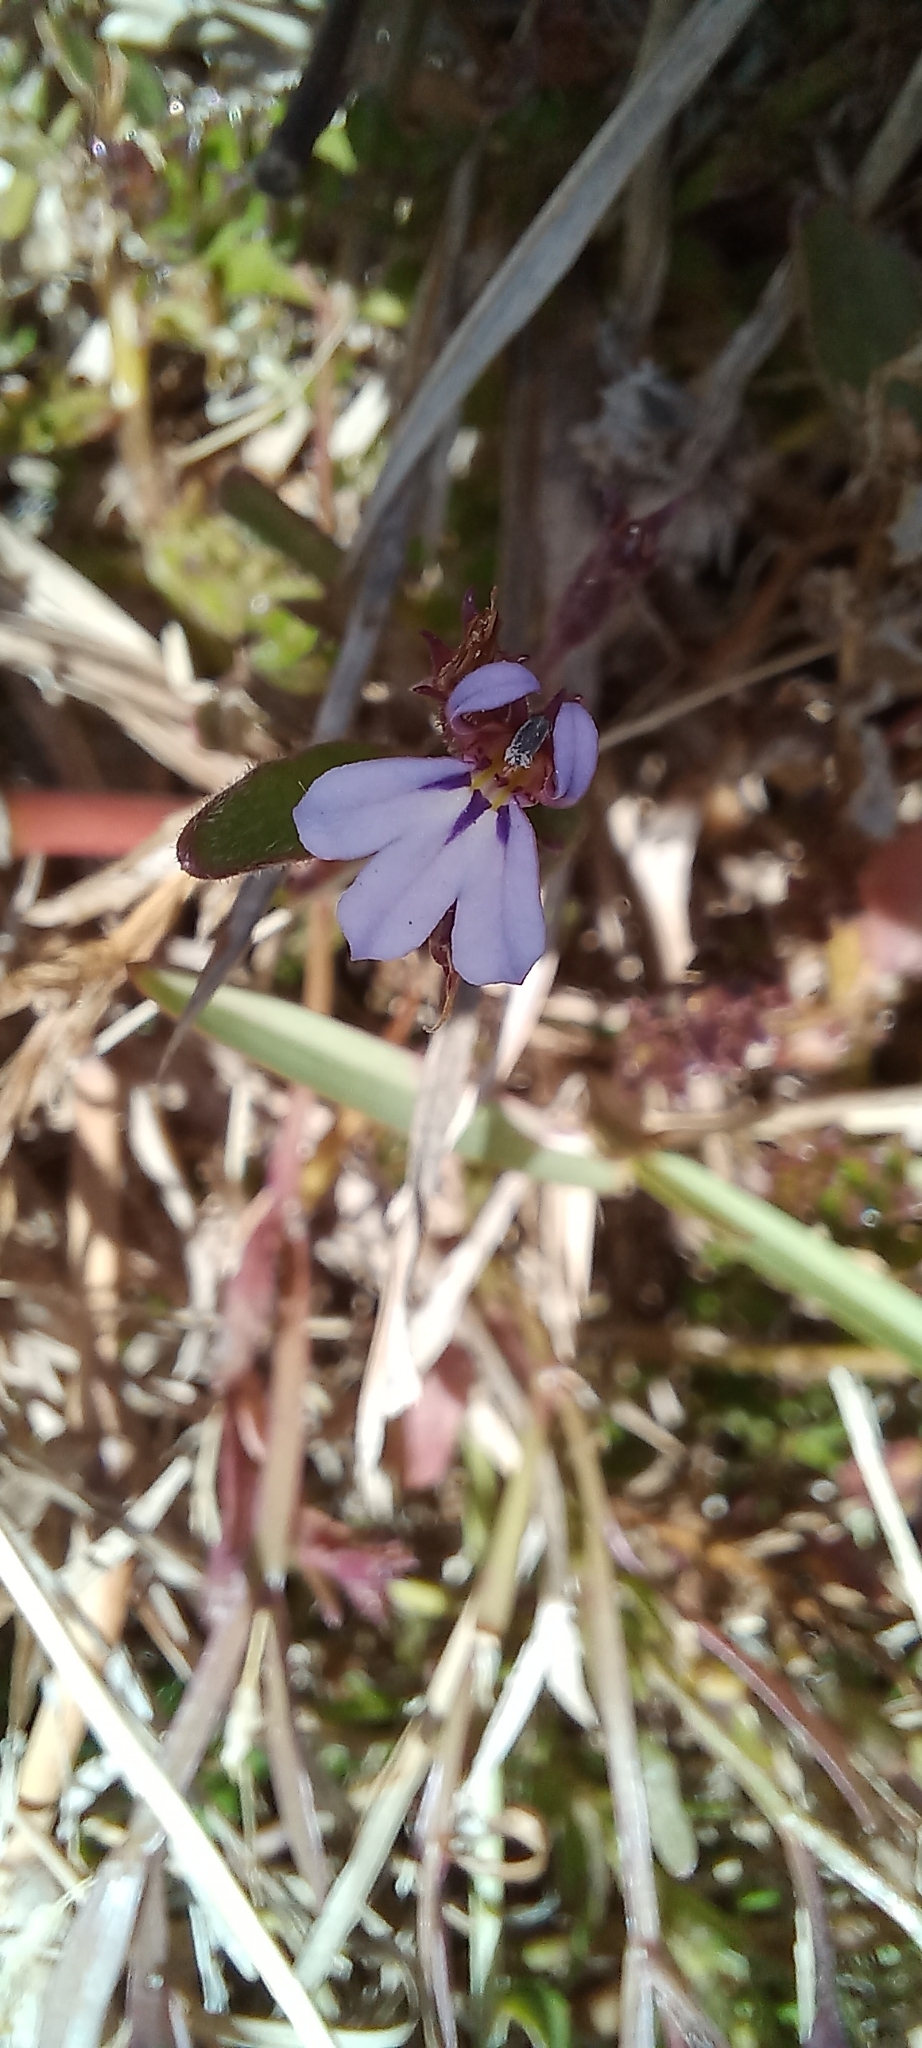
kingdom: Plantae
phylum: Tracheophyta
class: Magnoliopsida
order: Asterales
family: Campanulaceae
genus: Lobelia
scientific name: Lobelia anceps
